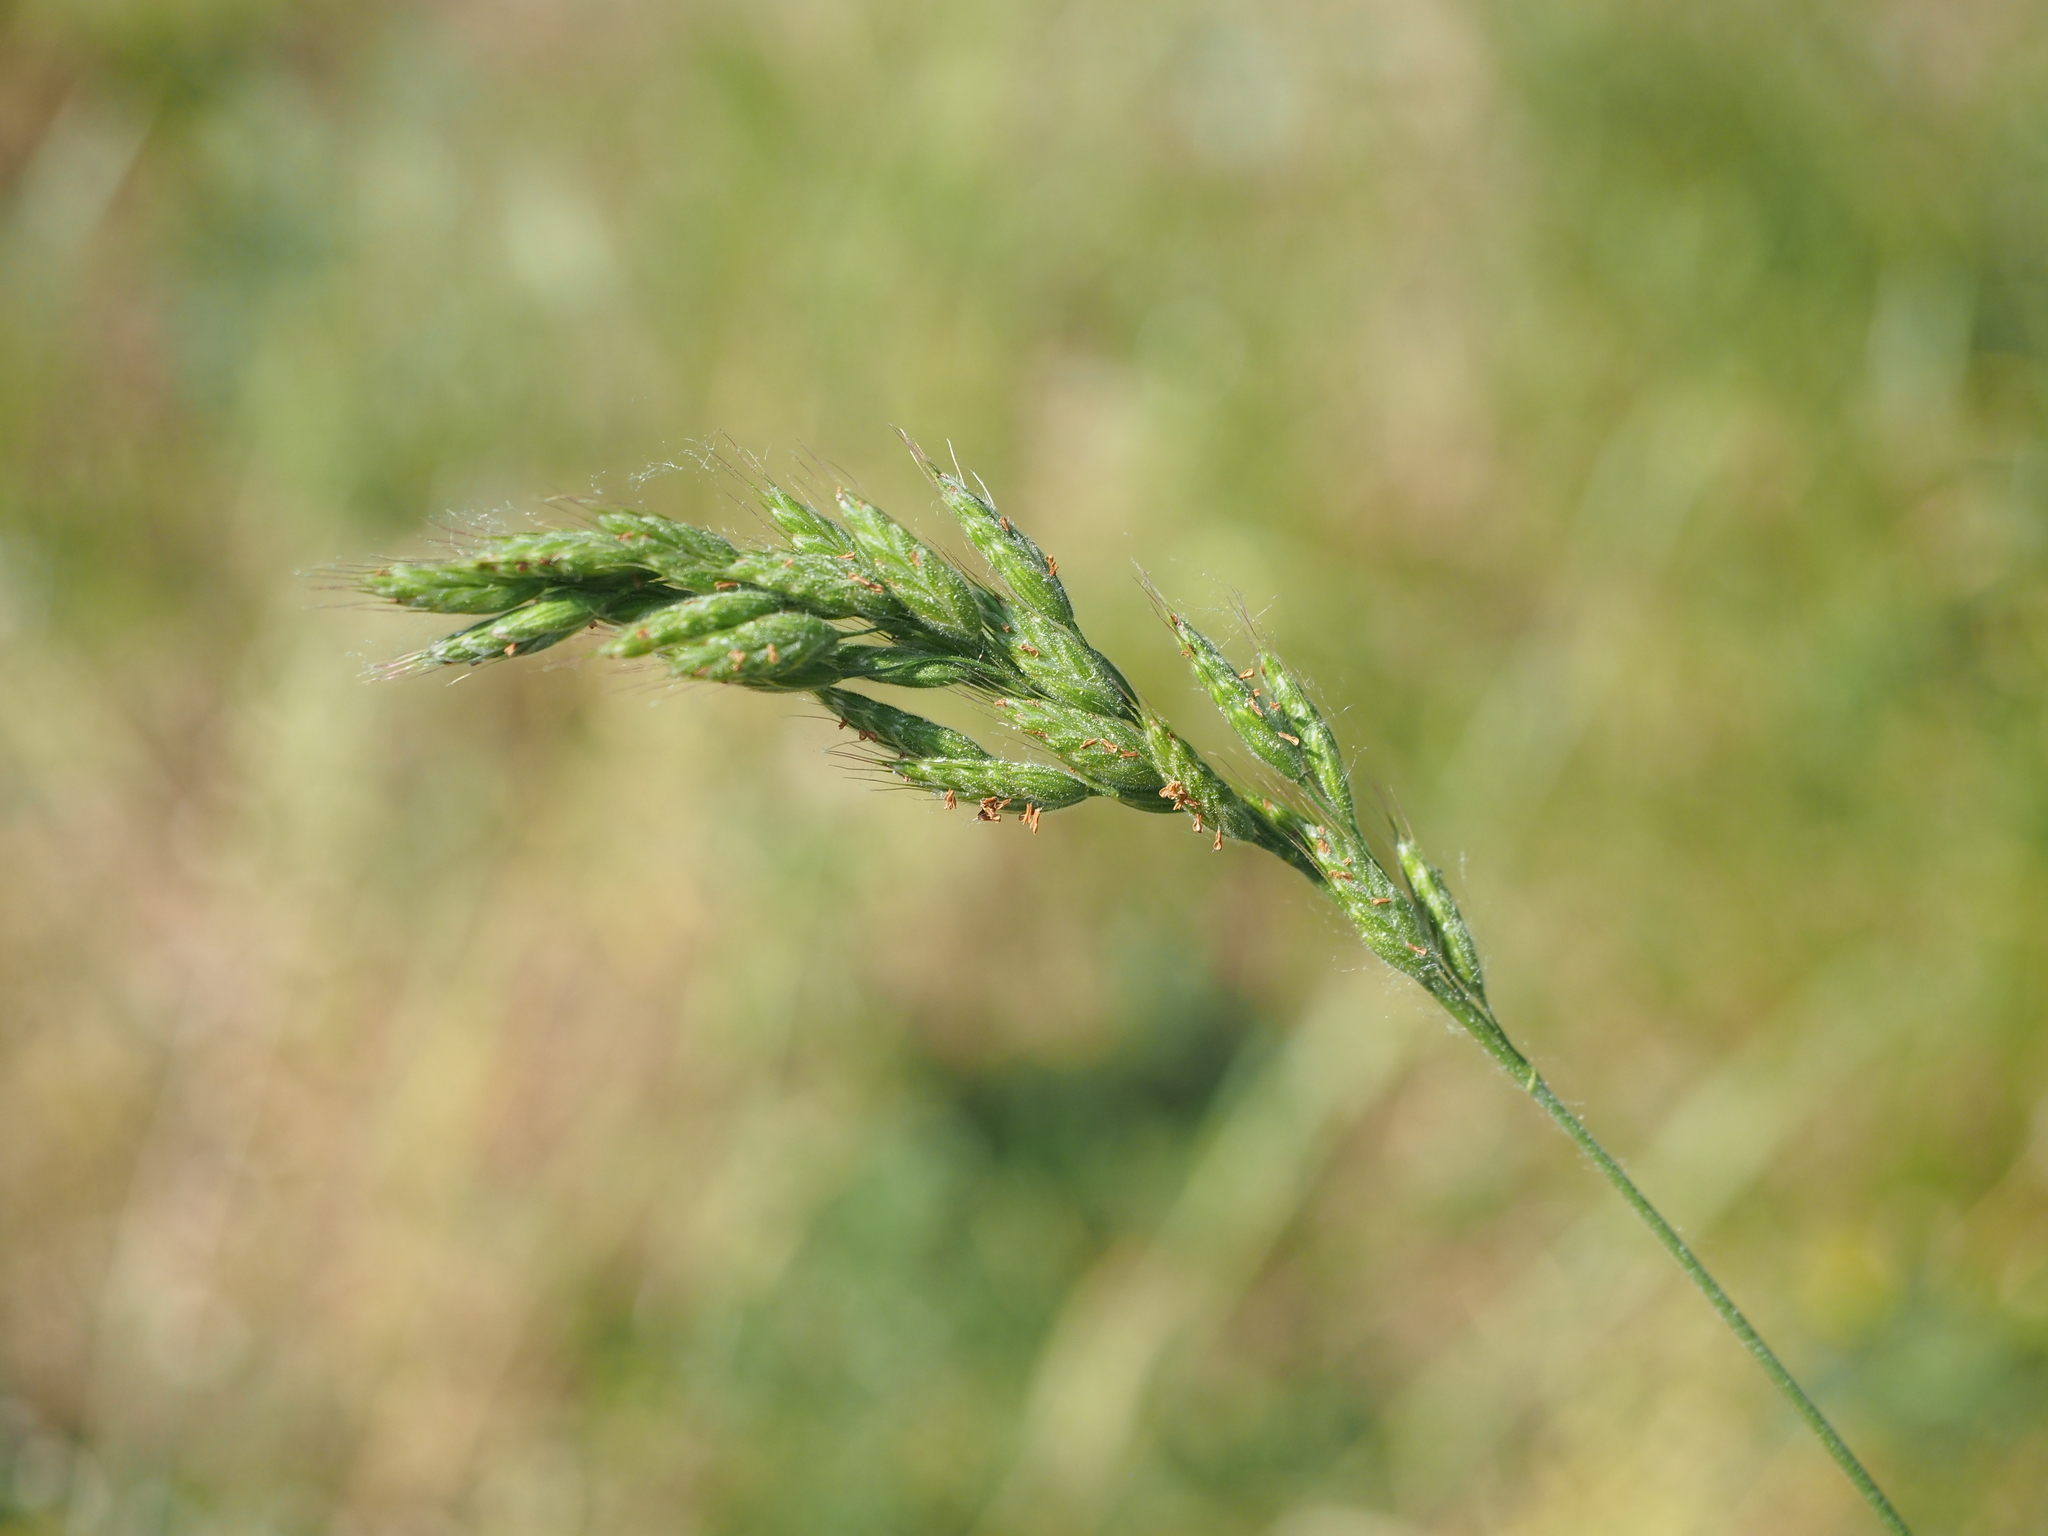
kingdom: Plantae
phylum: Tracheophyta
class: Liliopsida
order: Poales
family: Poaceae
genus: Bromus
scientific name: Bromus hordeaceus
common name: Soft brome
